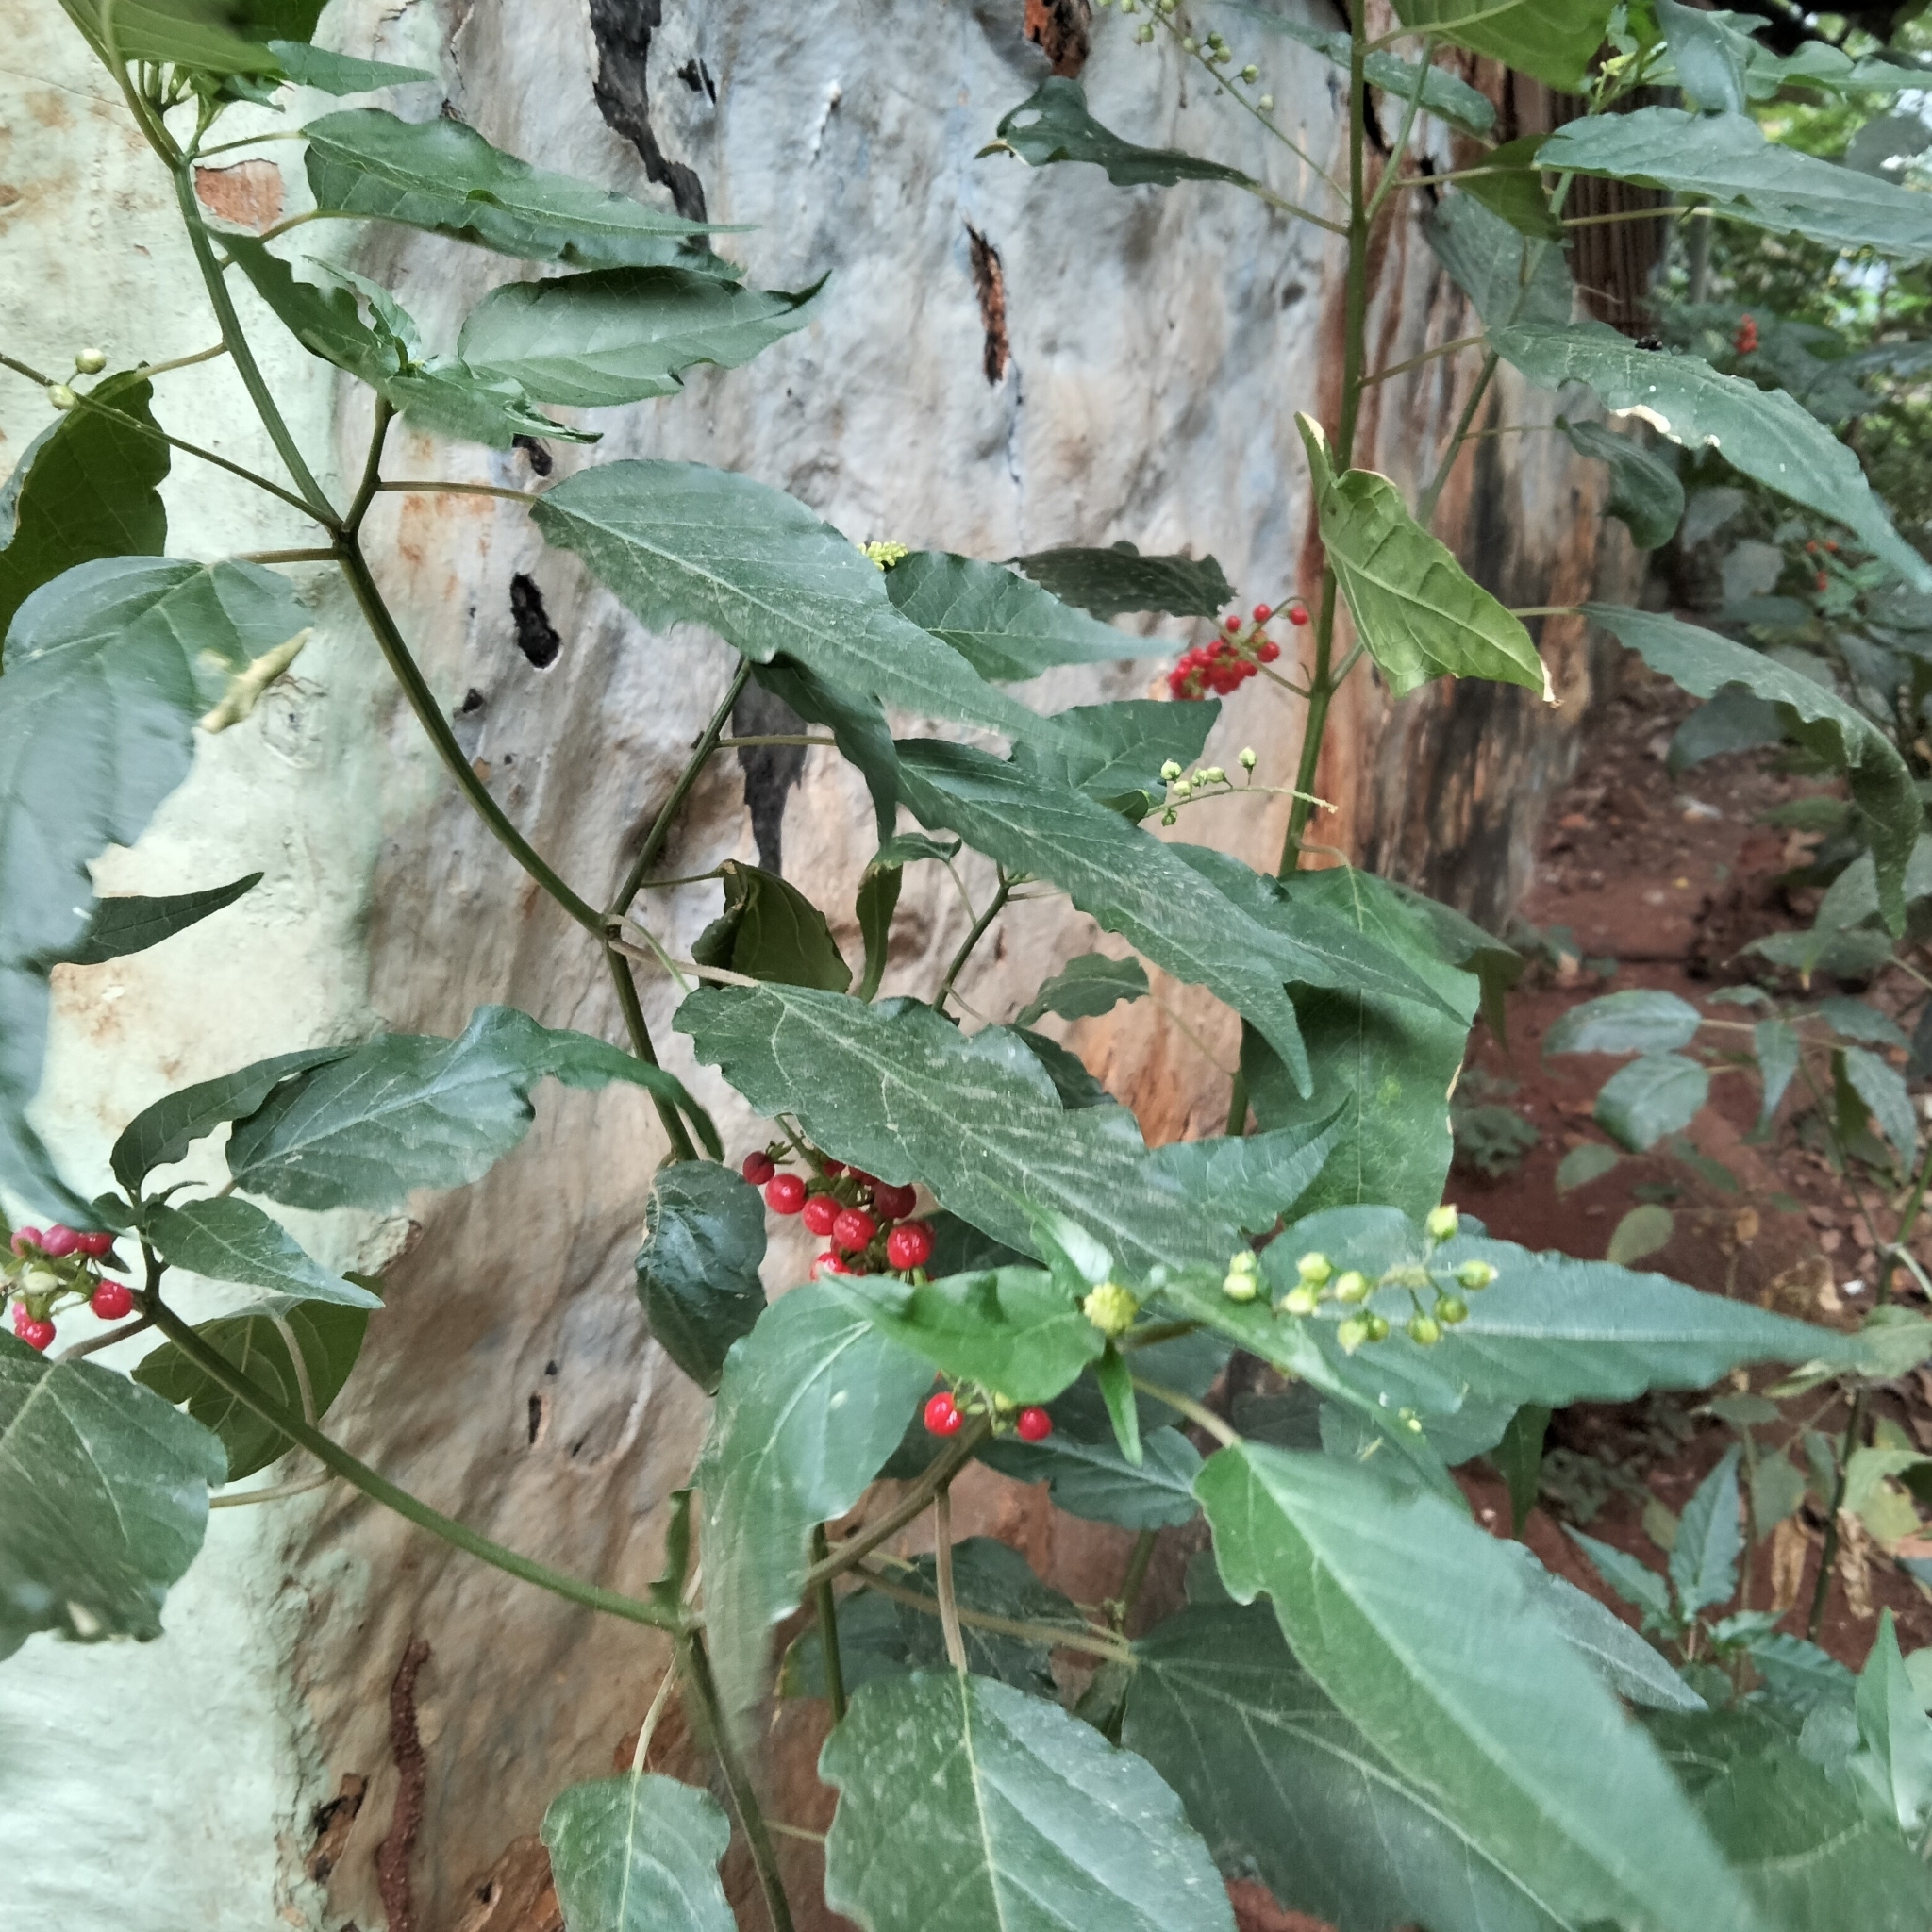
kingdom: Plantae
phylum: Tracheophyta
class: Magnoliopsida
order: Caryophyllales
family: Phytolaccaceae
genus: Rivina
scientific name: Rivina humilis
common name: Rougeplant
